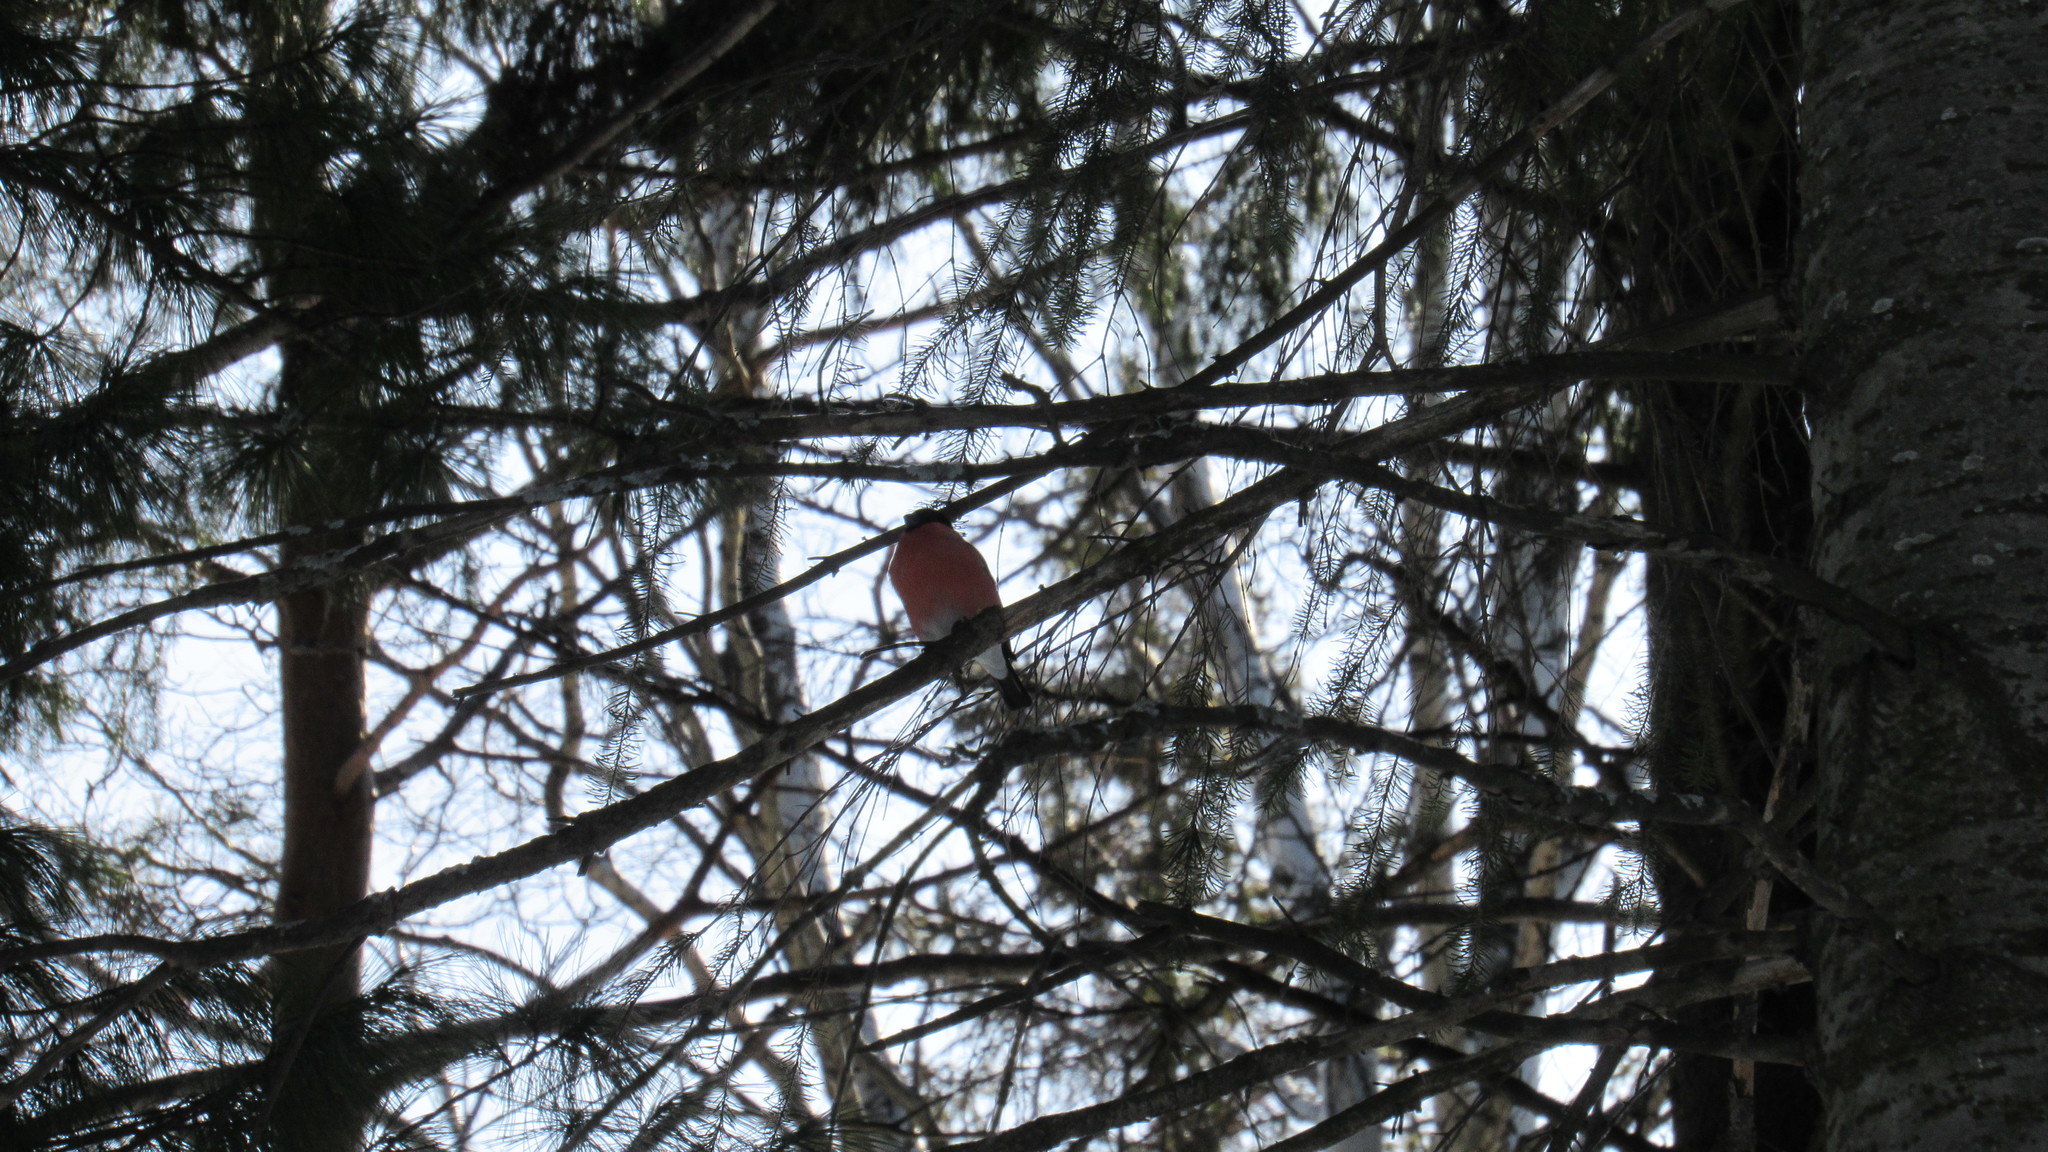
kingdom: Animalia
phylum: Chordata
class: Aves
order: Passeriformes
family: Fringillidae
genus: Pyrrhula
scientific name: Pyrrhula pyrrhula
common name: Eurasian bullfinch
